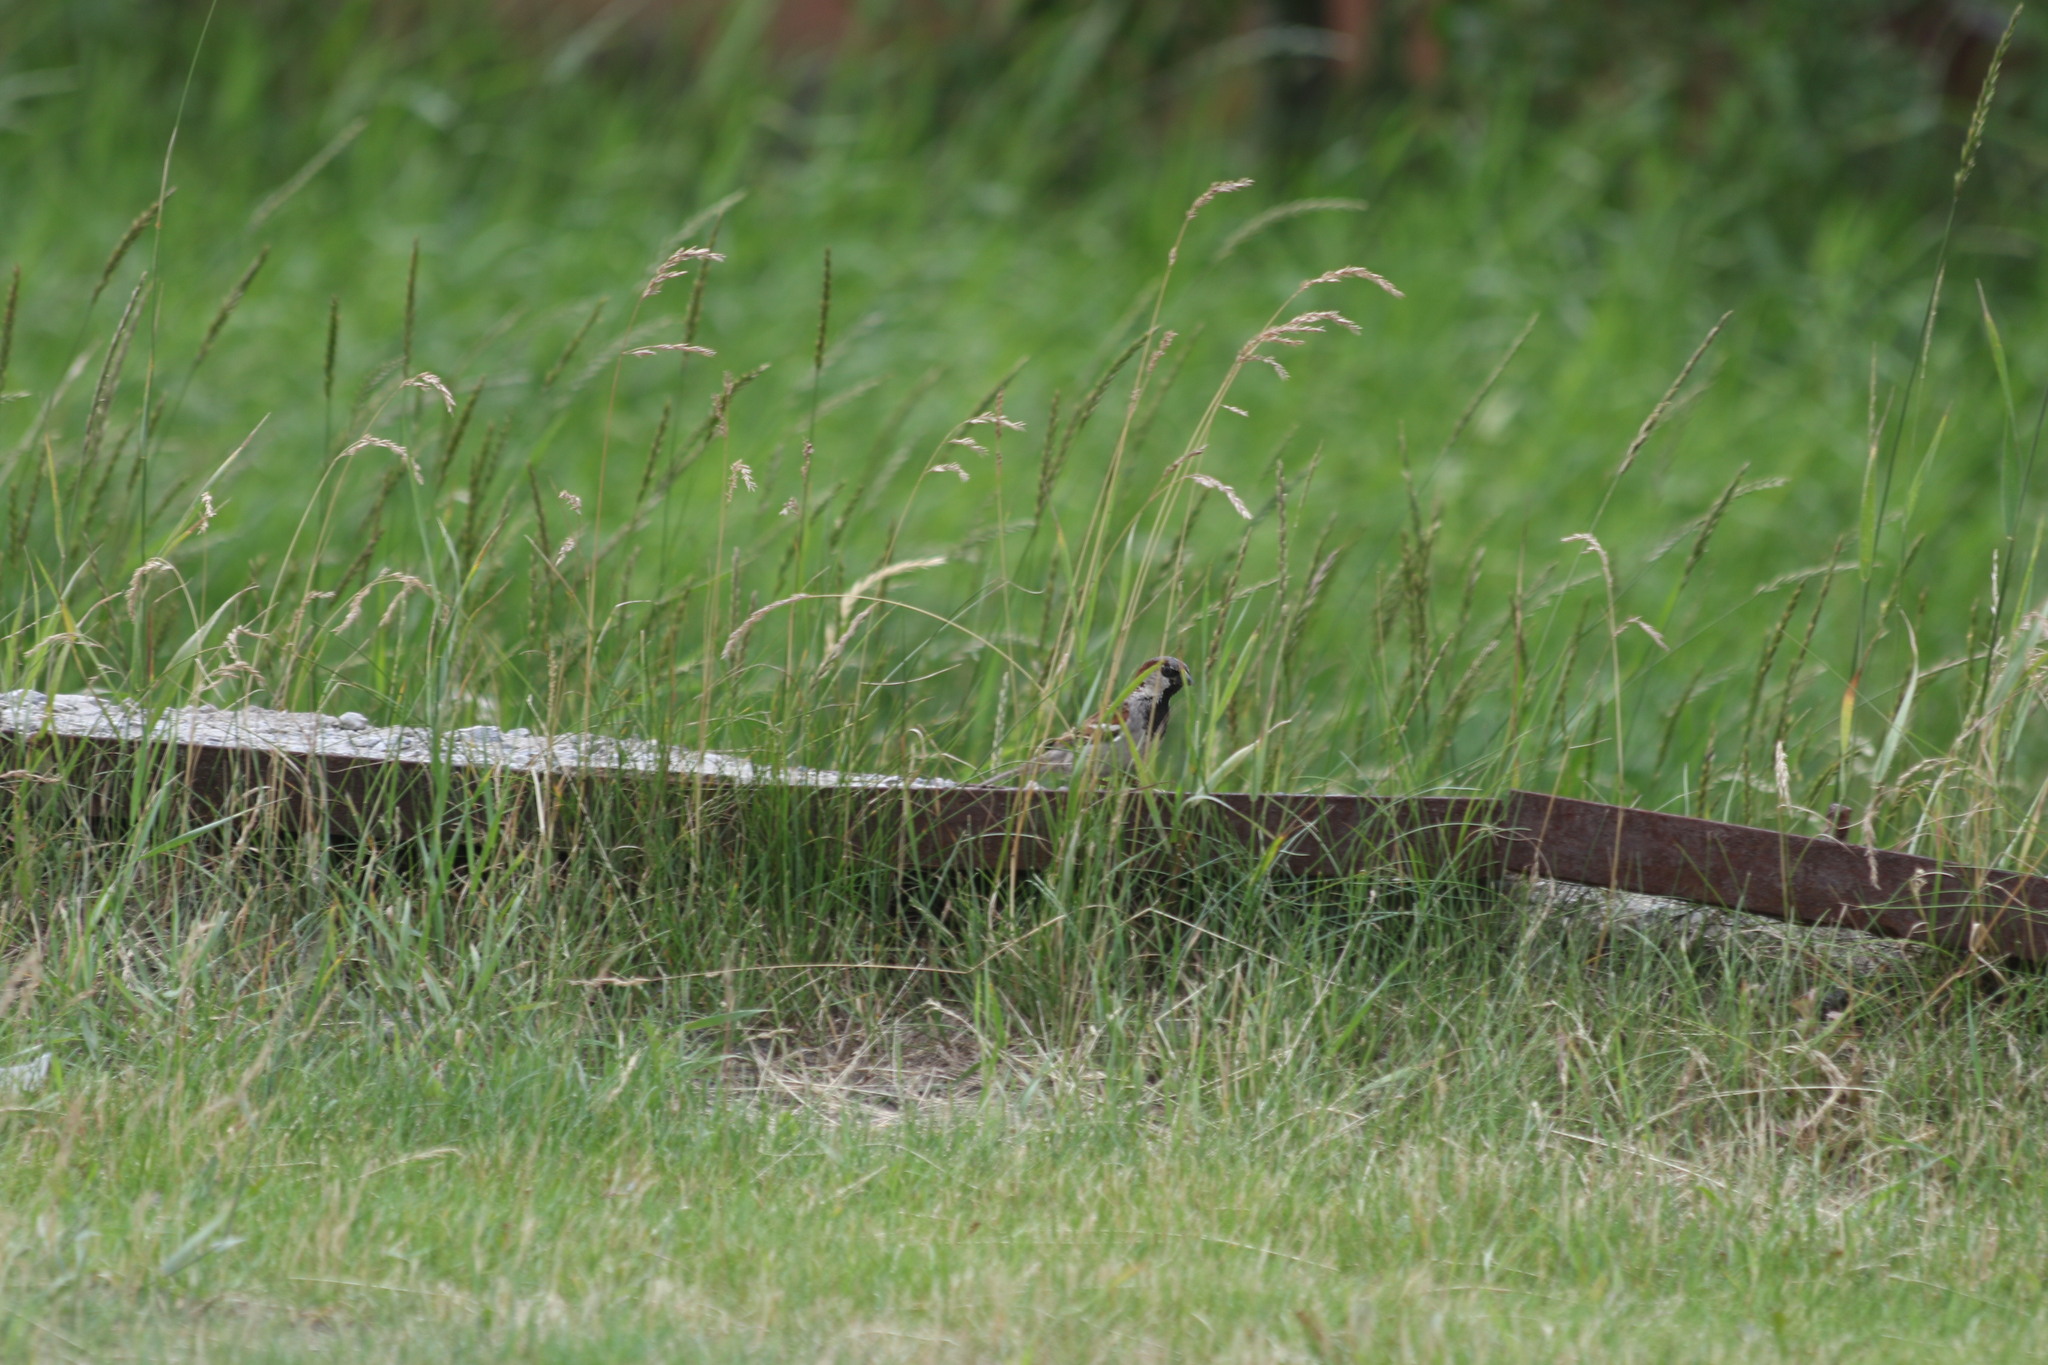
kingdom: Animalia
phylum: Chordata
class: Aves
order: Passeriformes
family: Passeridae
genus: Passer
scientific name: Passer domesticus
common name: House sparrow
